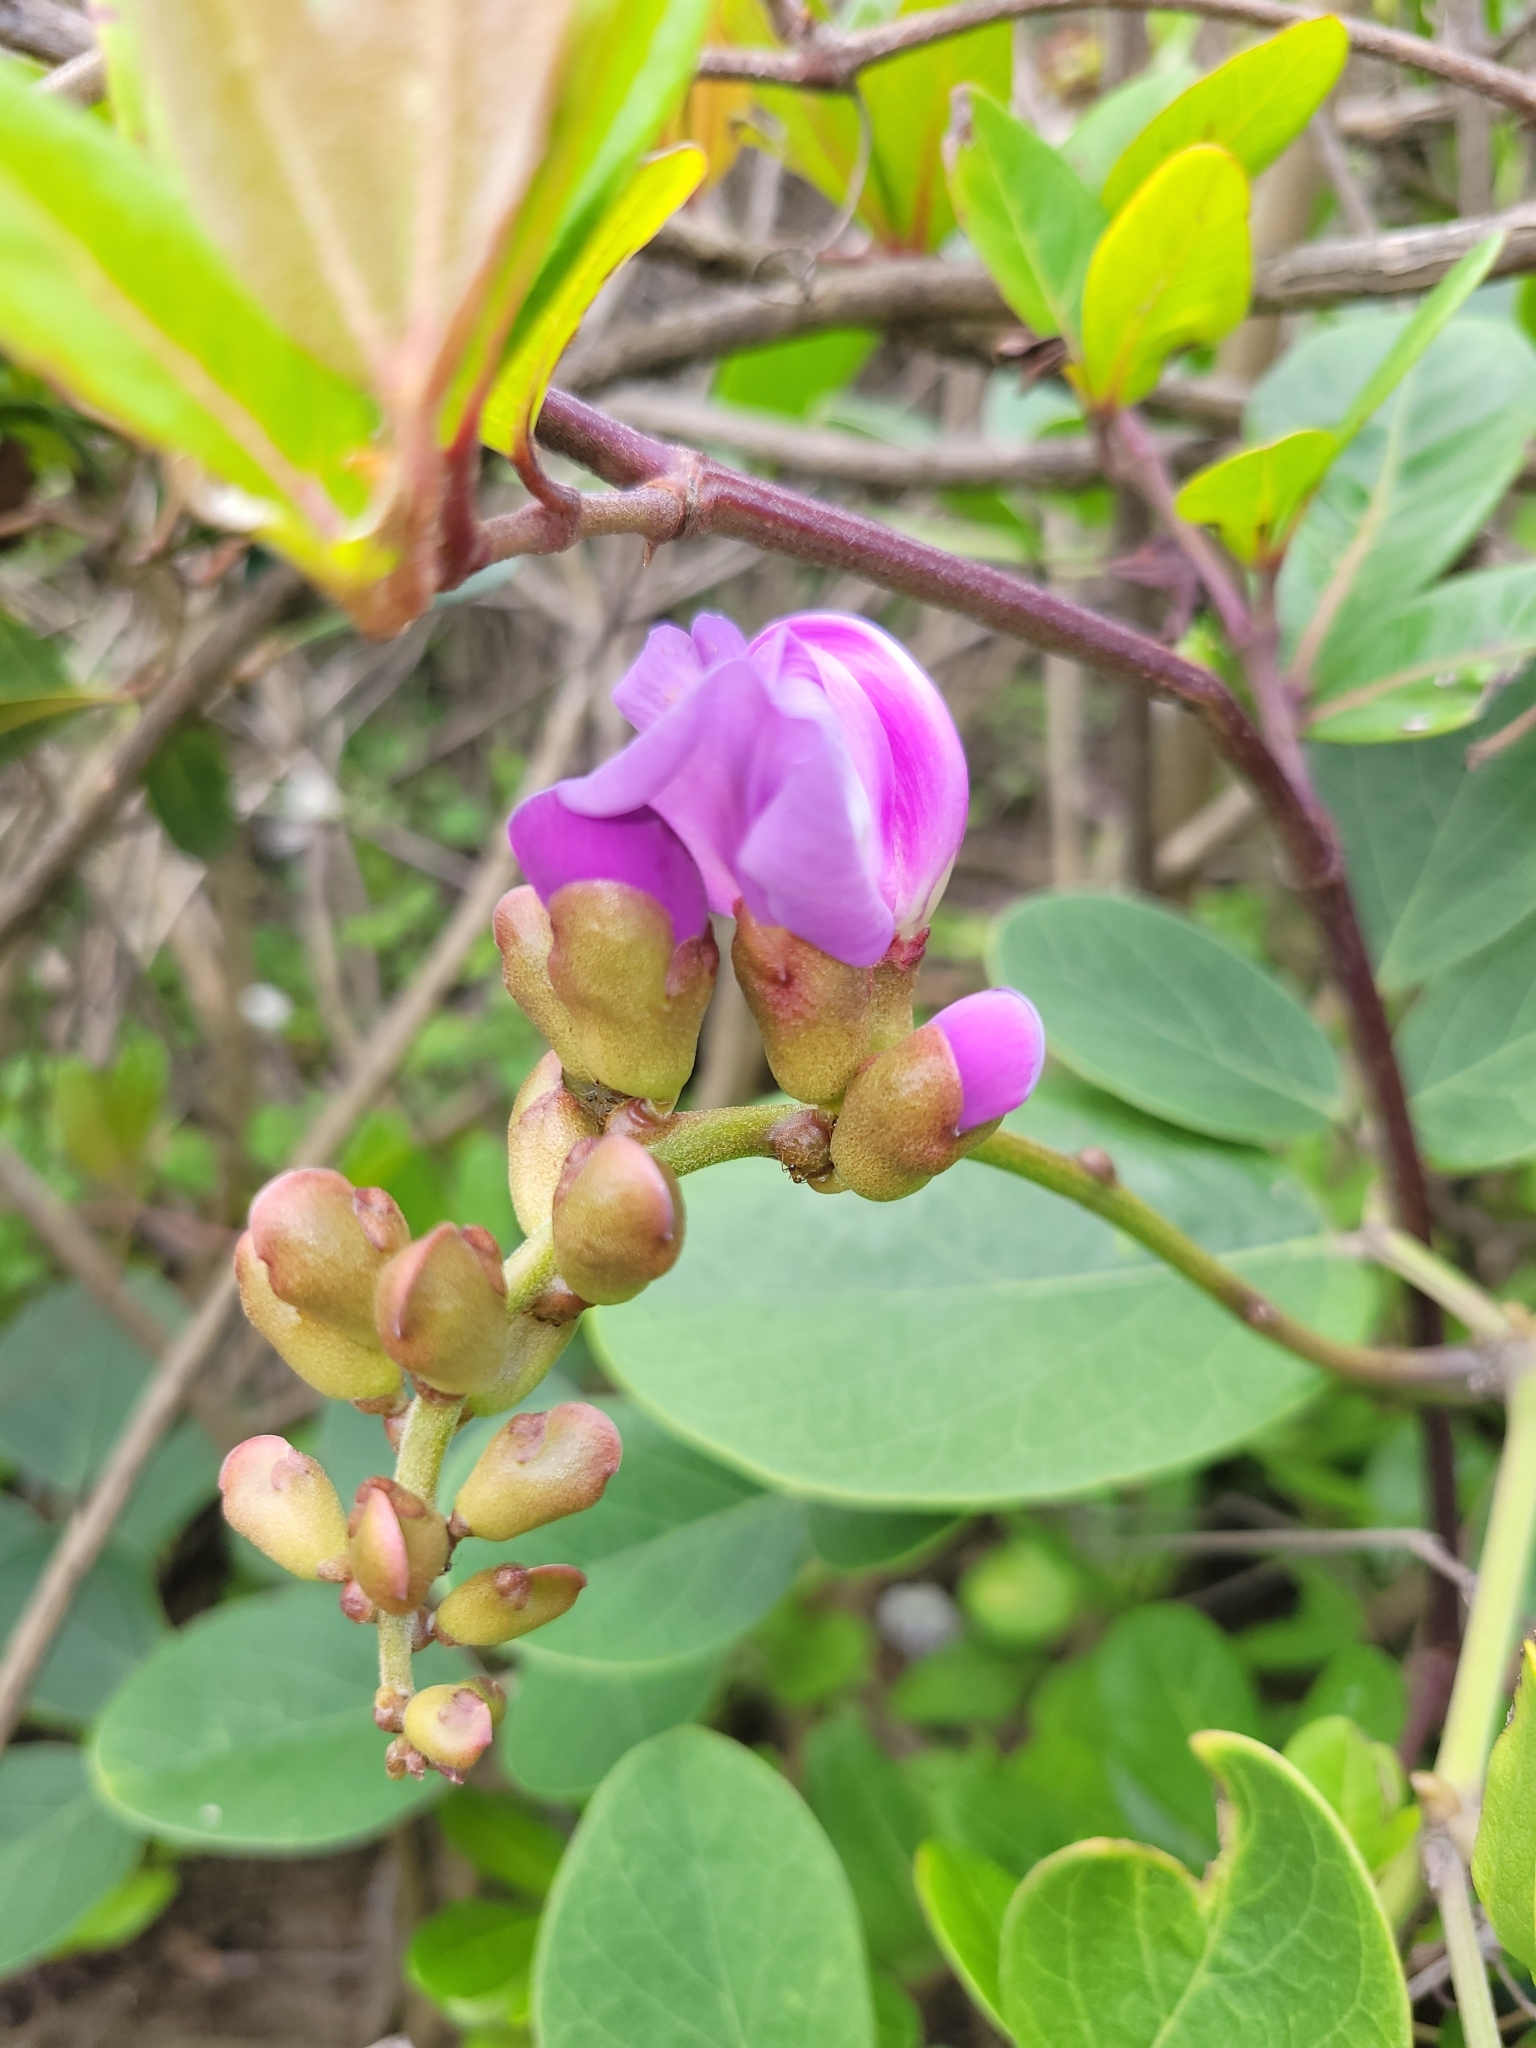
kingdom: Plantae
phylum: Tracheophyta
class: Magnoliopsida
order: Fabales
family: Fabaceae
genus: Canavalia
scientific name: Canavalia rosea
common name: Beach-bean
